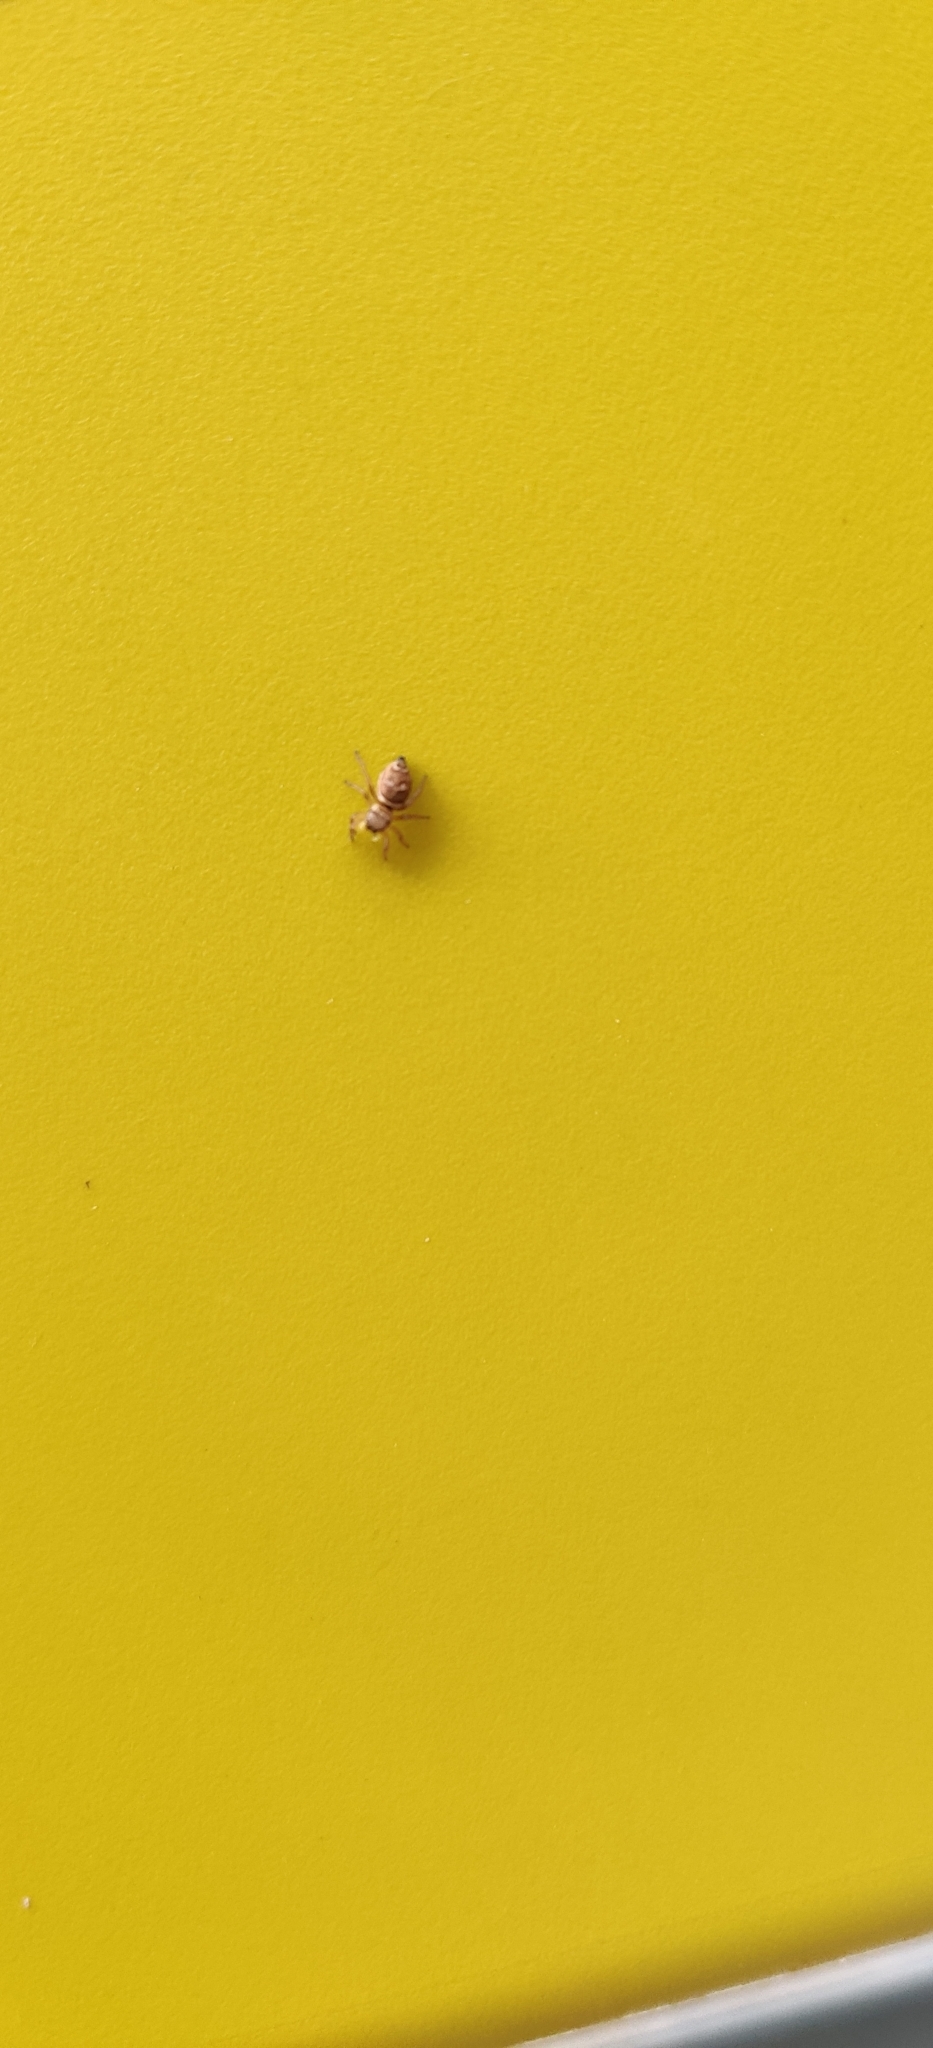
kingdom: Animalia
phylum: Arthropoda
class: Arachnida
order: Araneae
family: Salticidae
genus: Heliophanus
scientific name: Heliophanus tribulosus
